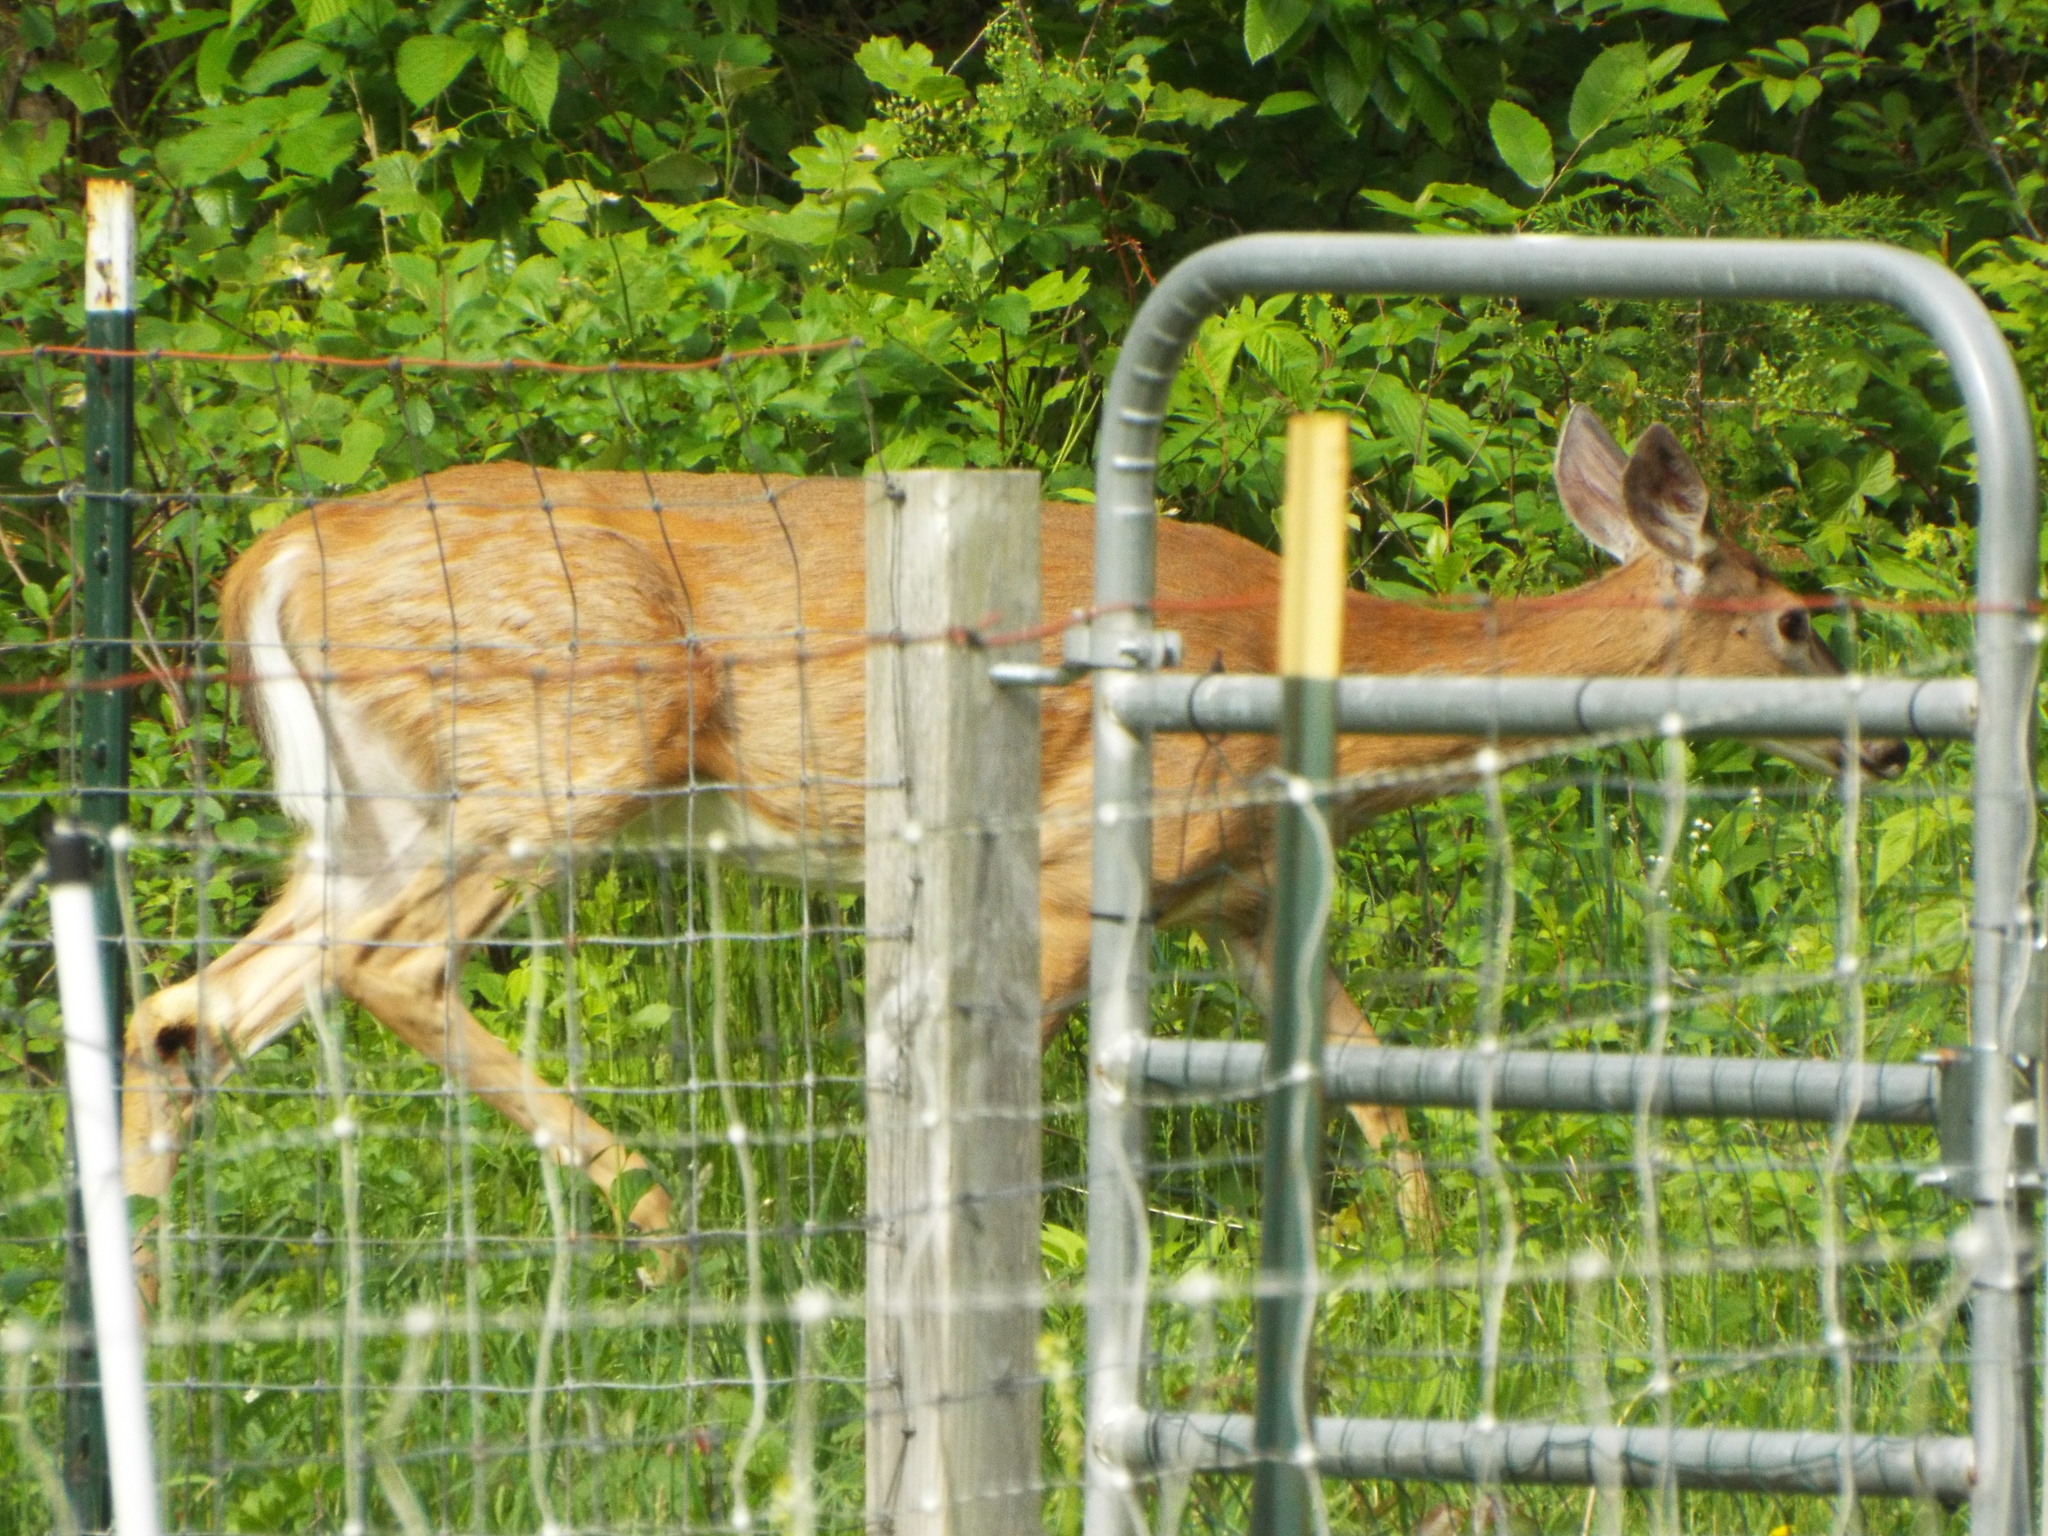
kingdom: Animalia
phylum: Chordata
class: Mammalia
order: Artiodactyla
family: Cervidae
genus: Odocoileus
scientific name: Odocoileus virginianus
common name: White-tailed deer
